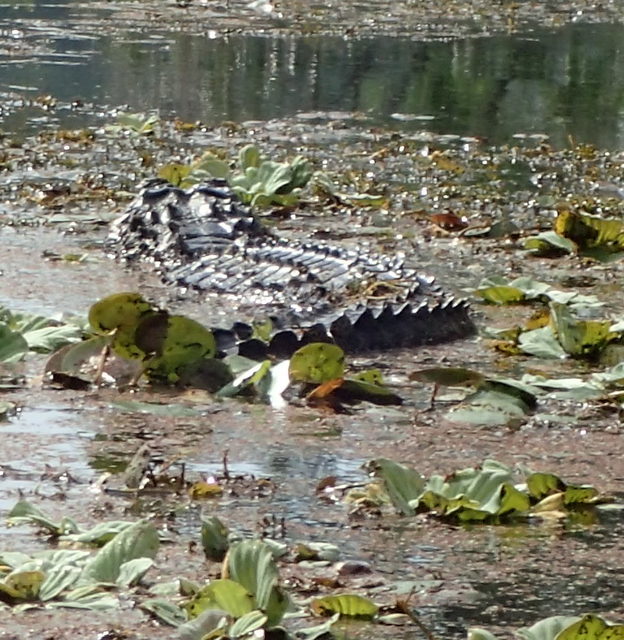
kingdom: Animalia
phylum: Chordata
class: Crocodylia
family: Alligatoridae
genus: Alligator
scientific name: Alligator mississippiensis
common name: American alligator
